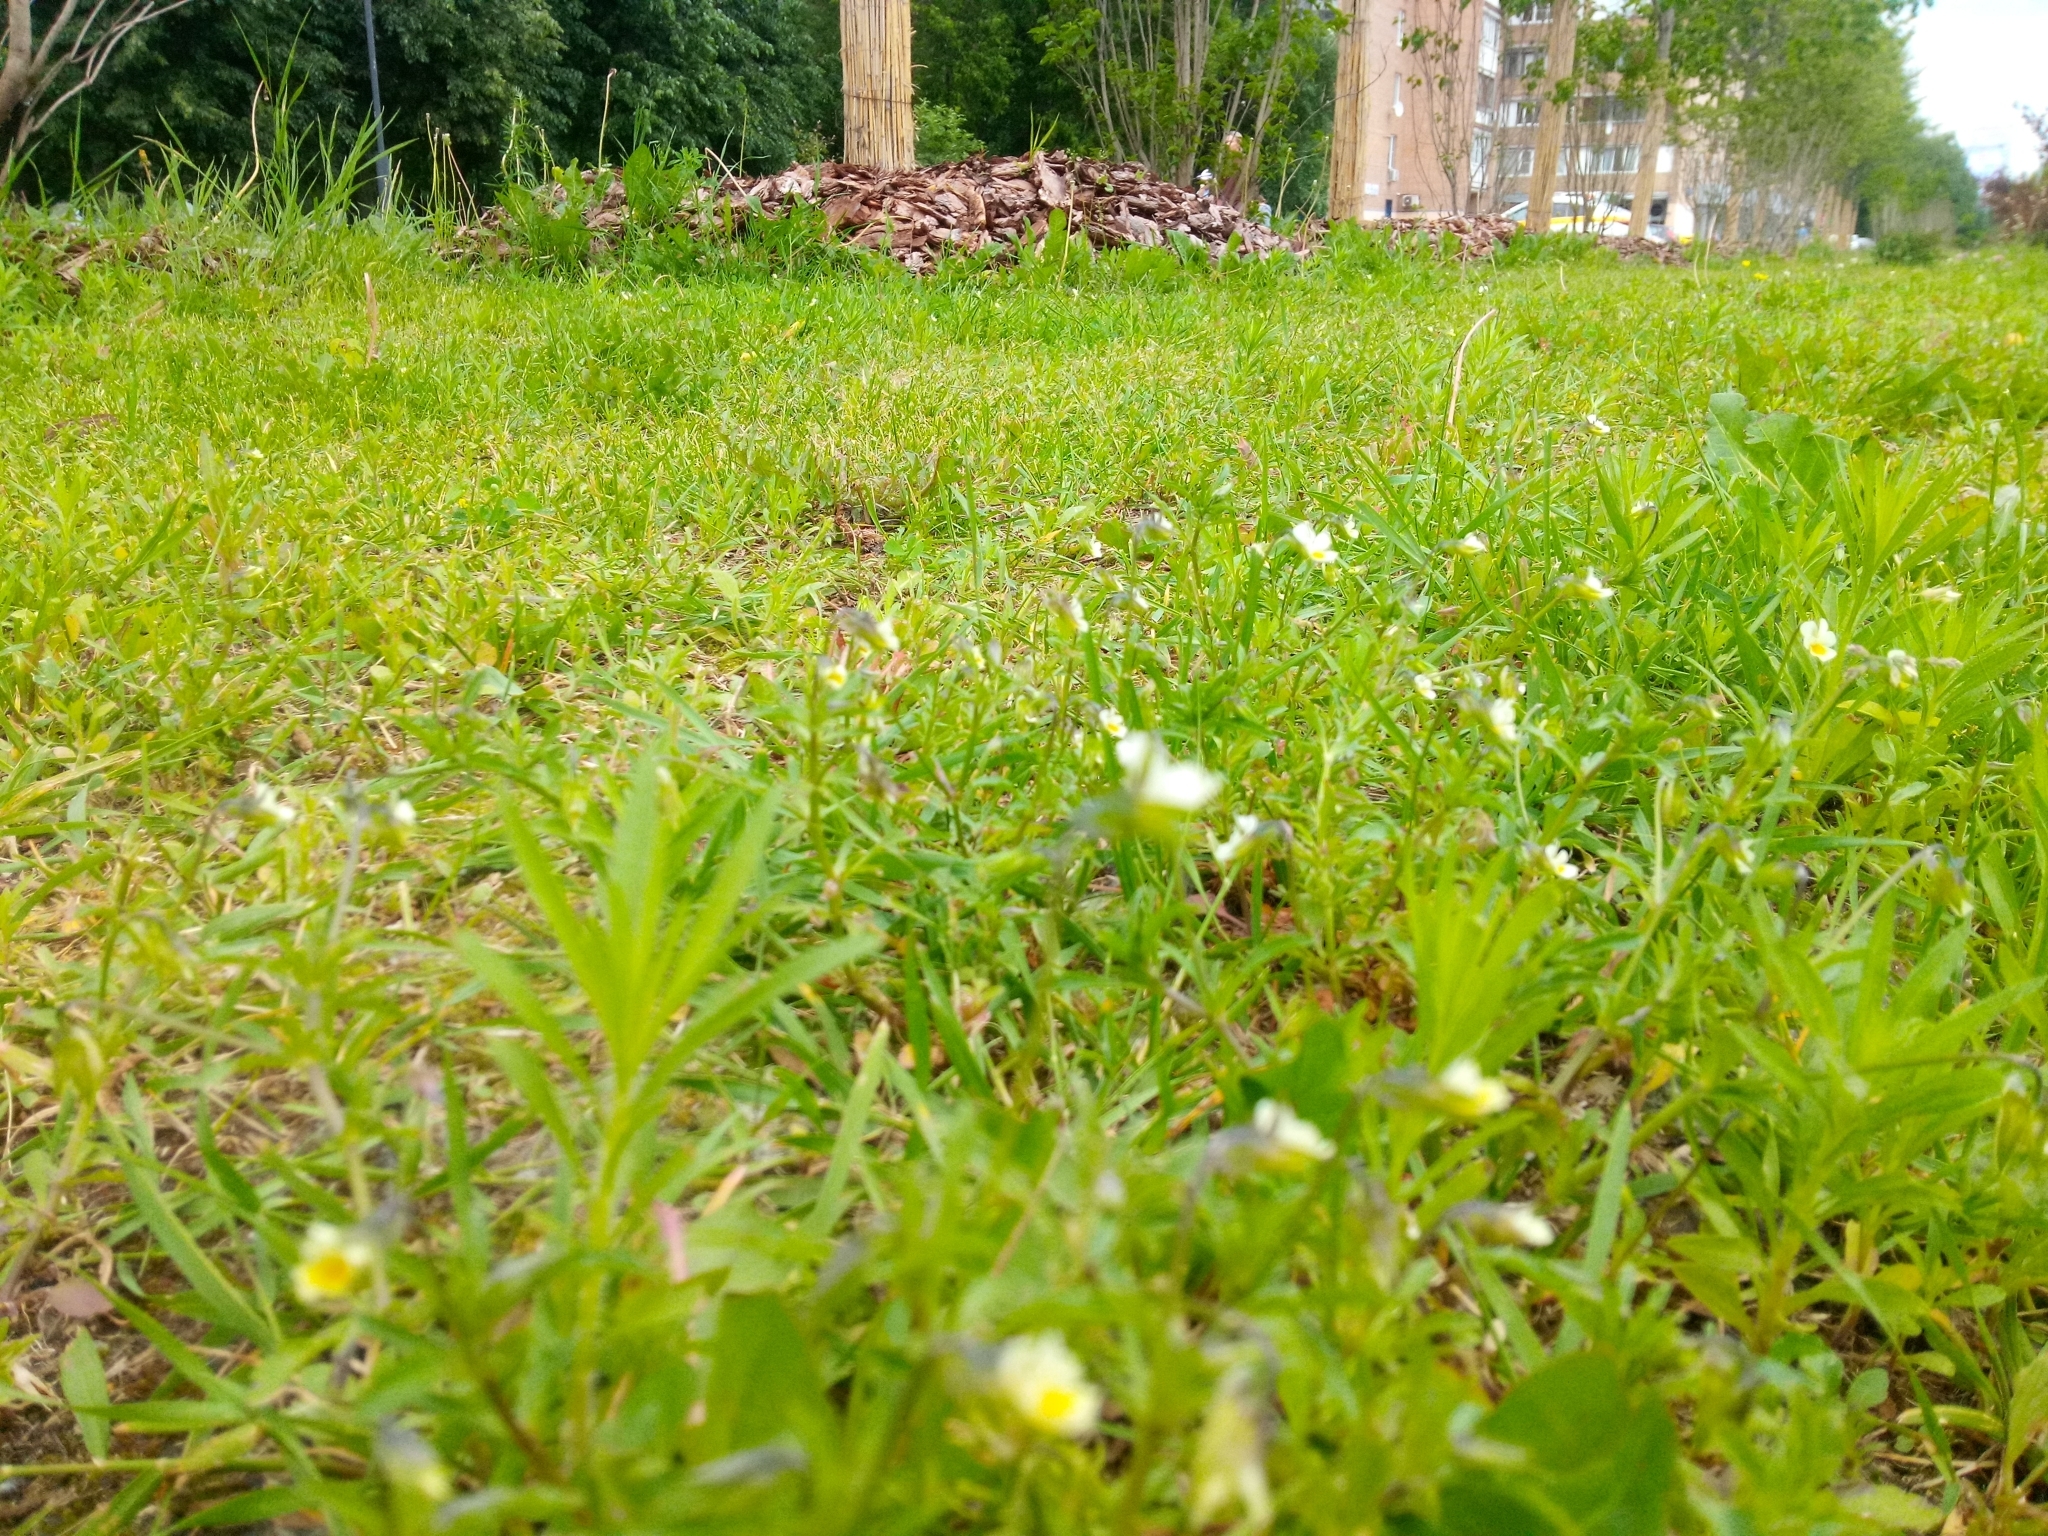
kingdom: Plantae
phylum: Tracheophyta
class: Magnoliopsida
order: Malpighiales
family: Violaceae
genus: Viola
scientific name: Viola arvensis
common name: Field pansy
